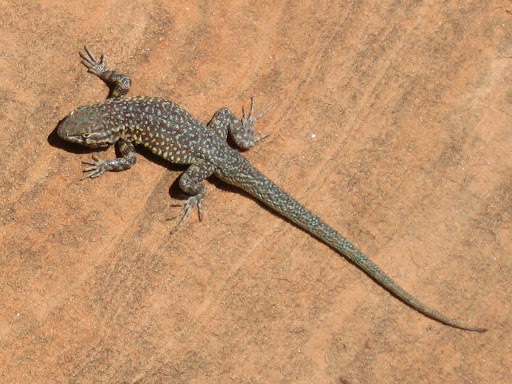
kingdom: Animalia
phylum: Chordata
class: Squamata
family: Phrynosomatidae
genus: Uta
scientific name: Uta stansburiana
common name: Side-blotched lizard
